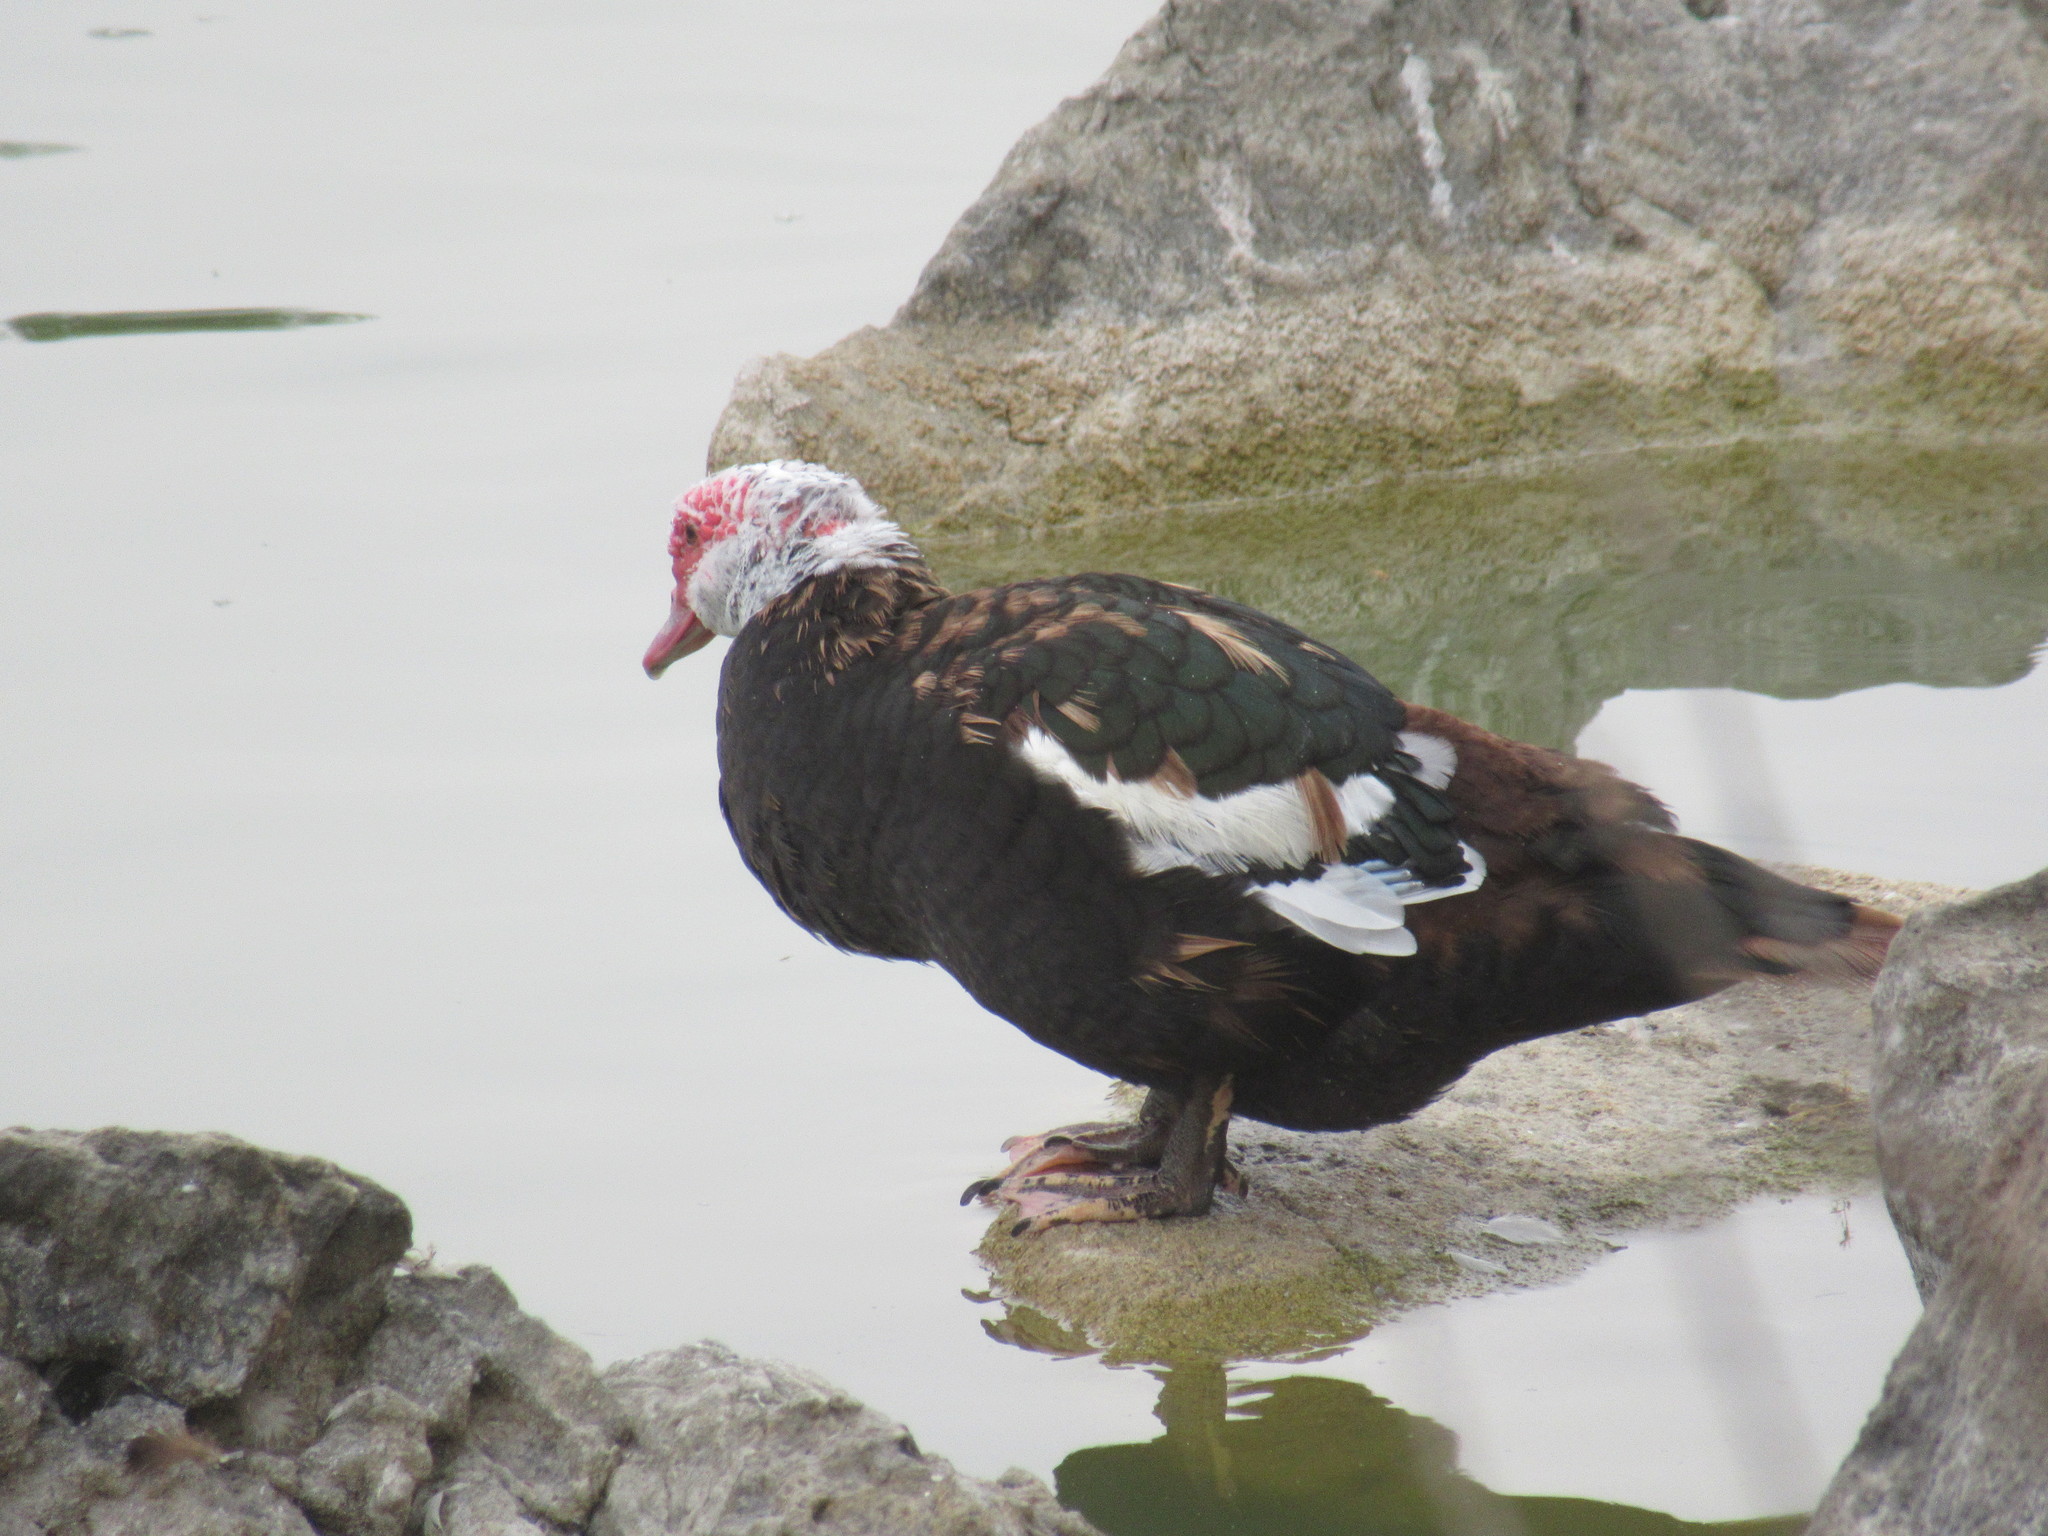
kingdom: Animalia
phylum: Chordata
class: Aves
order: Anseriformes
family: Anatidae
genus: Cairina
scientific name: Cairina moschata
